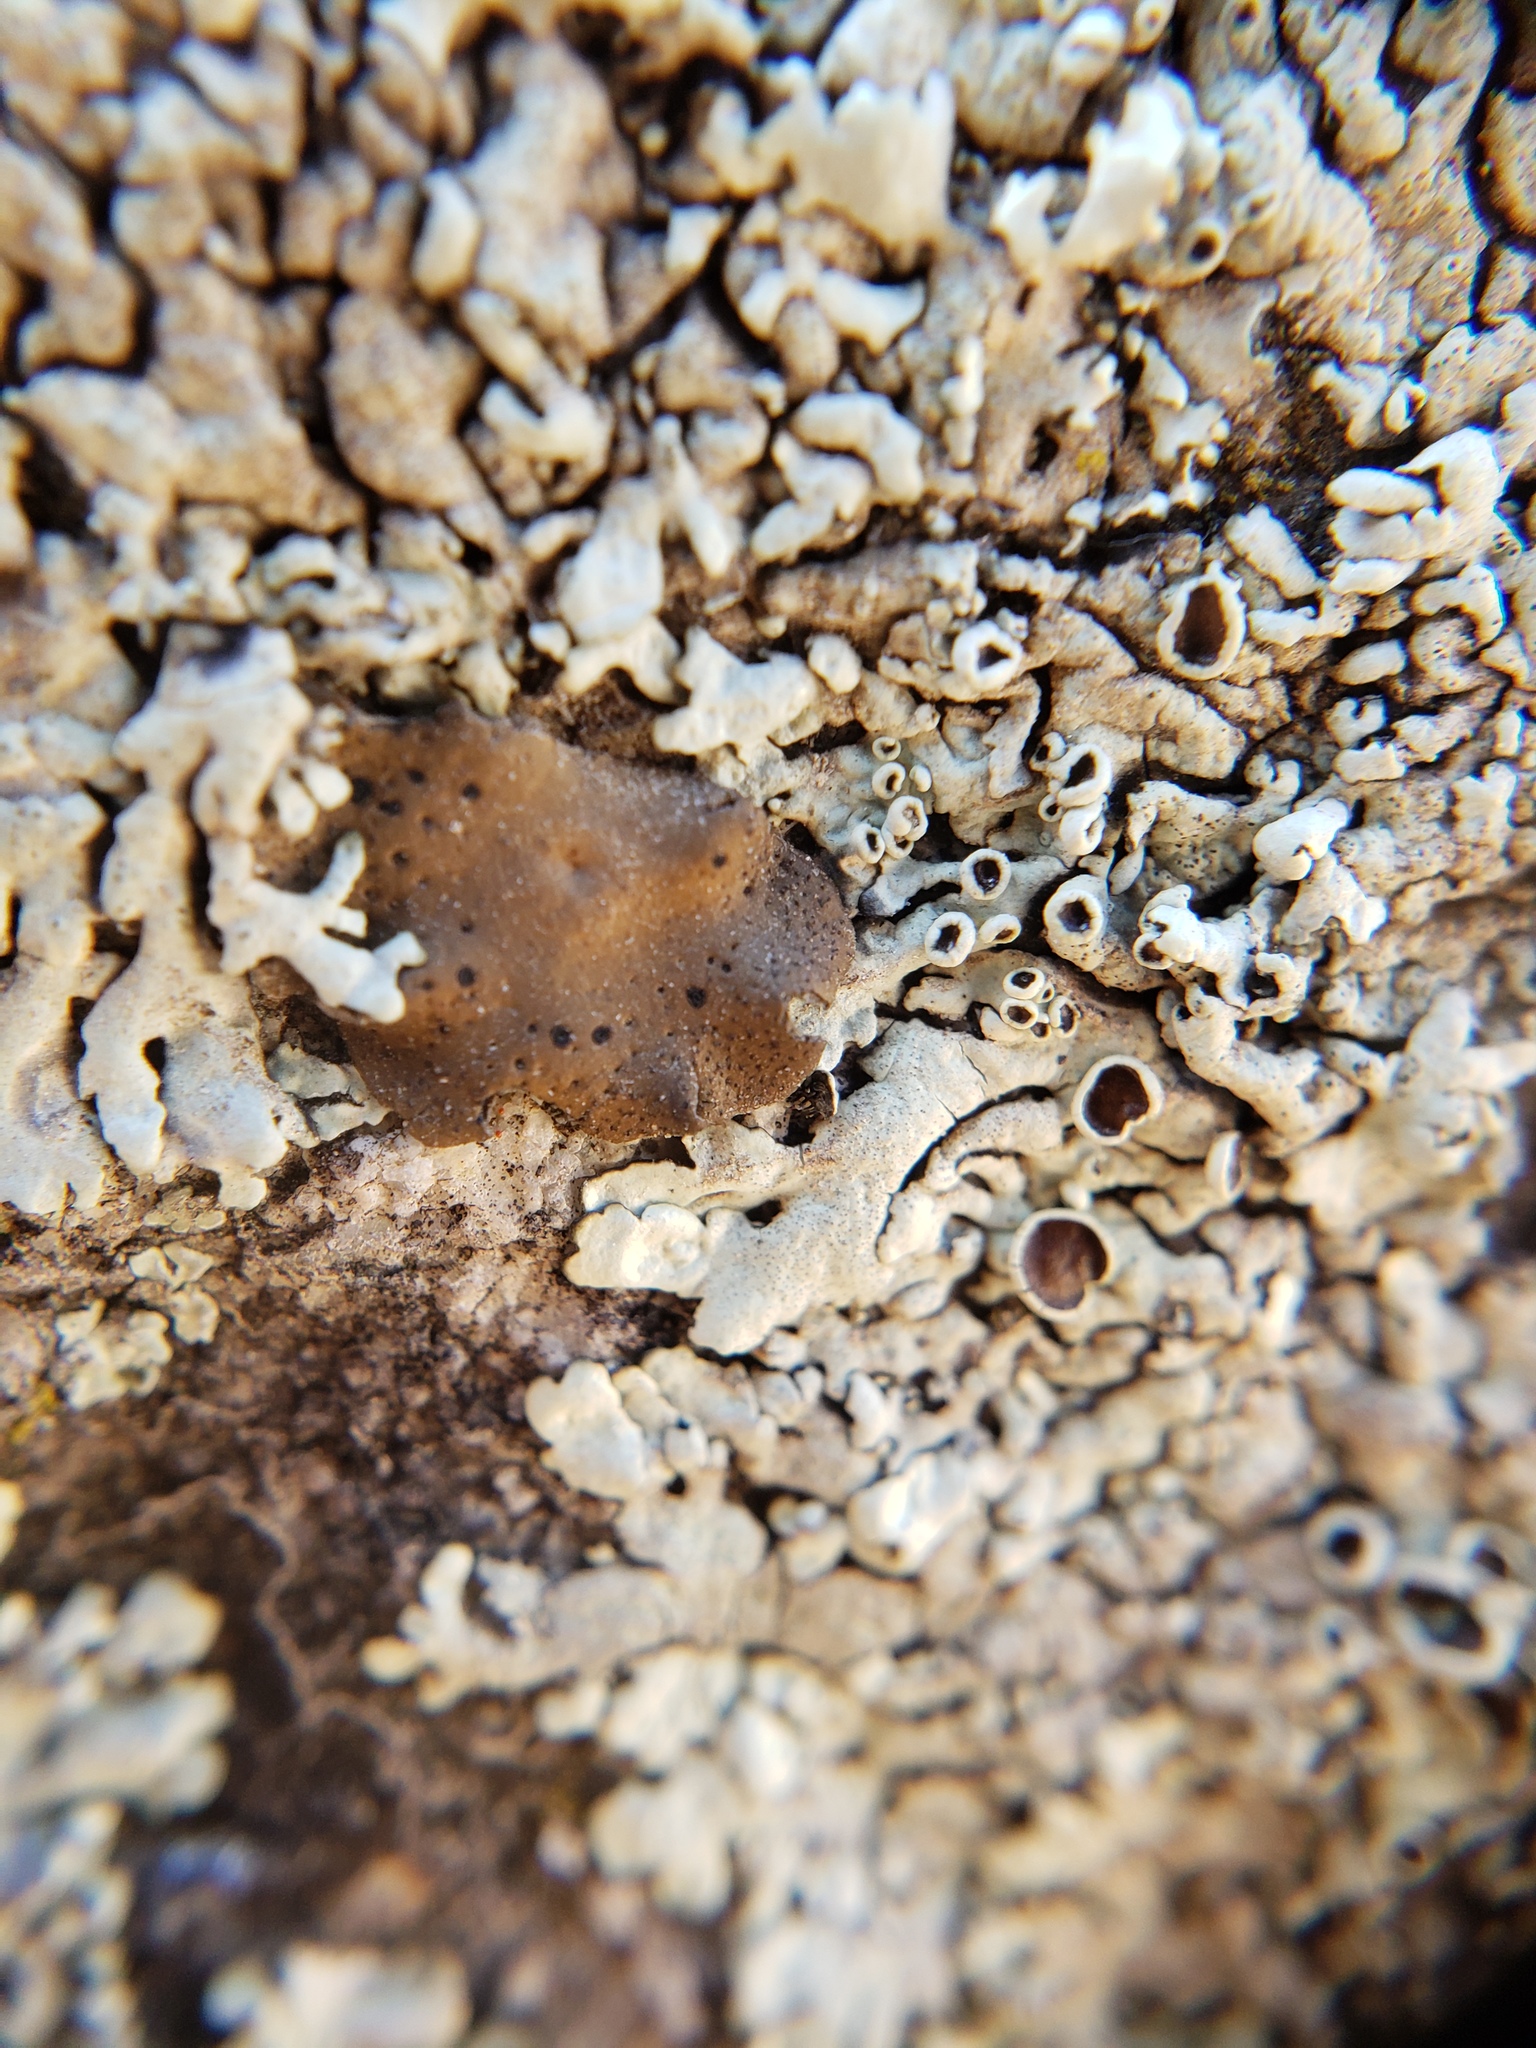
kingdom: Fungi
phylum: Ascomycota
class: Lecanoromycetes
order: Umbilicariales
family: Umbilicariaceae
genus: Umbilicaria
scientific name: Umbilicaria phaea
